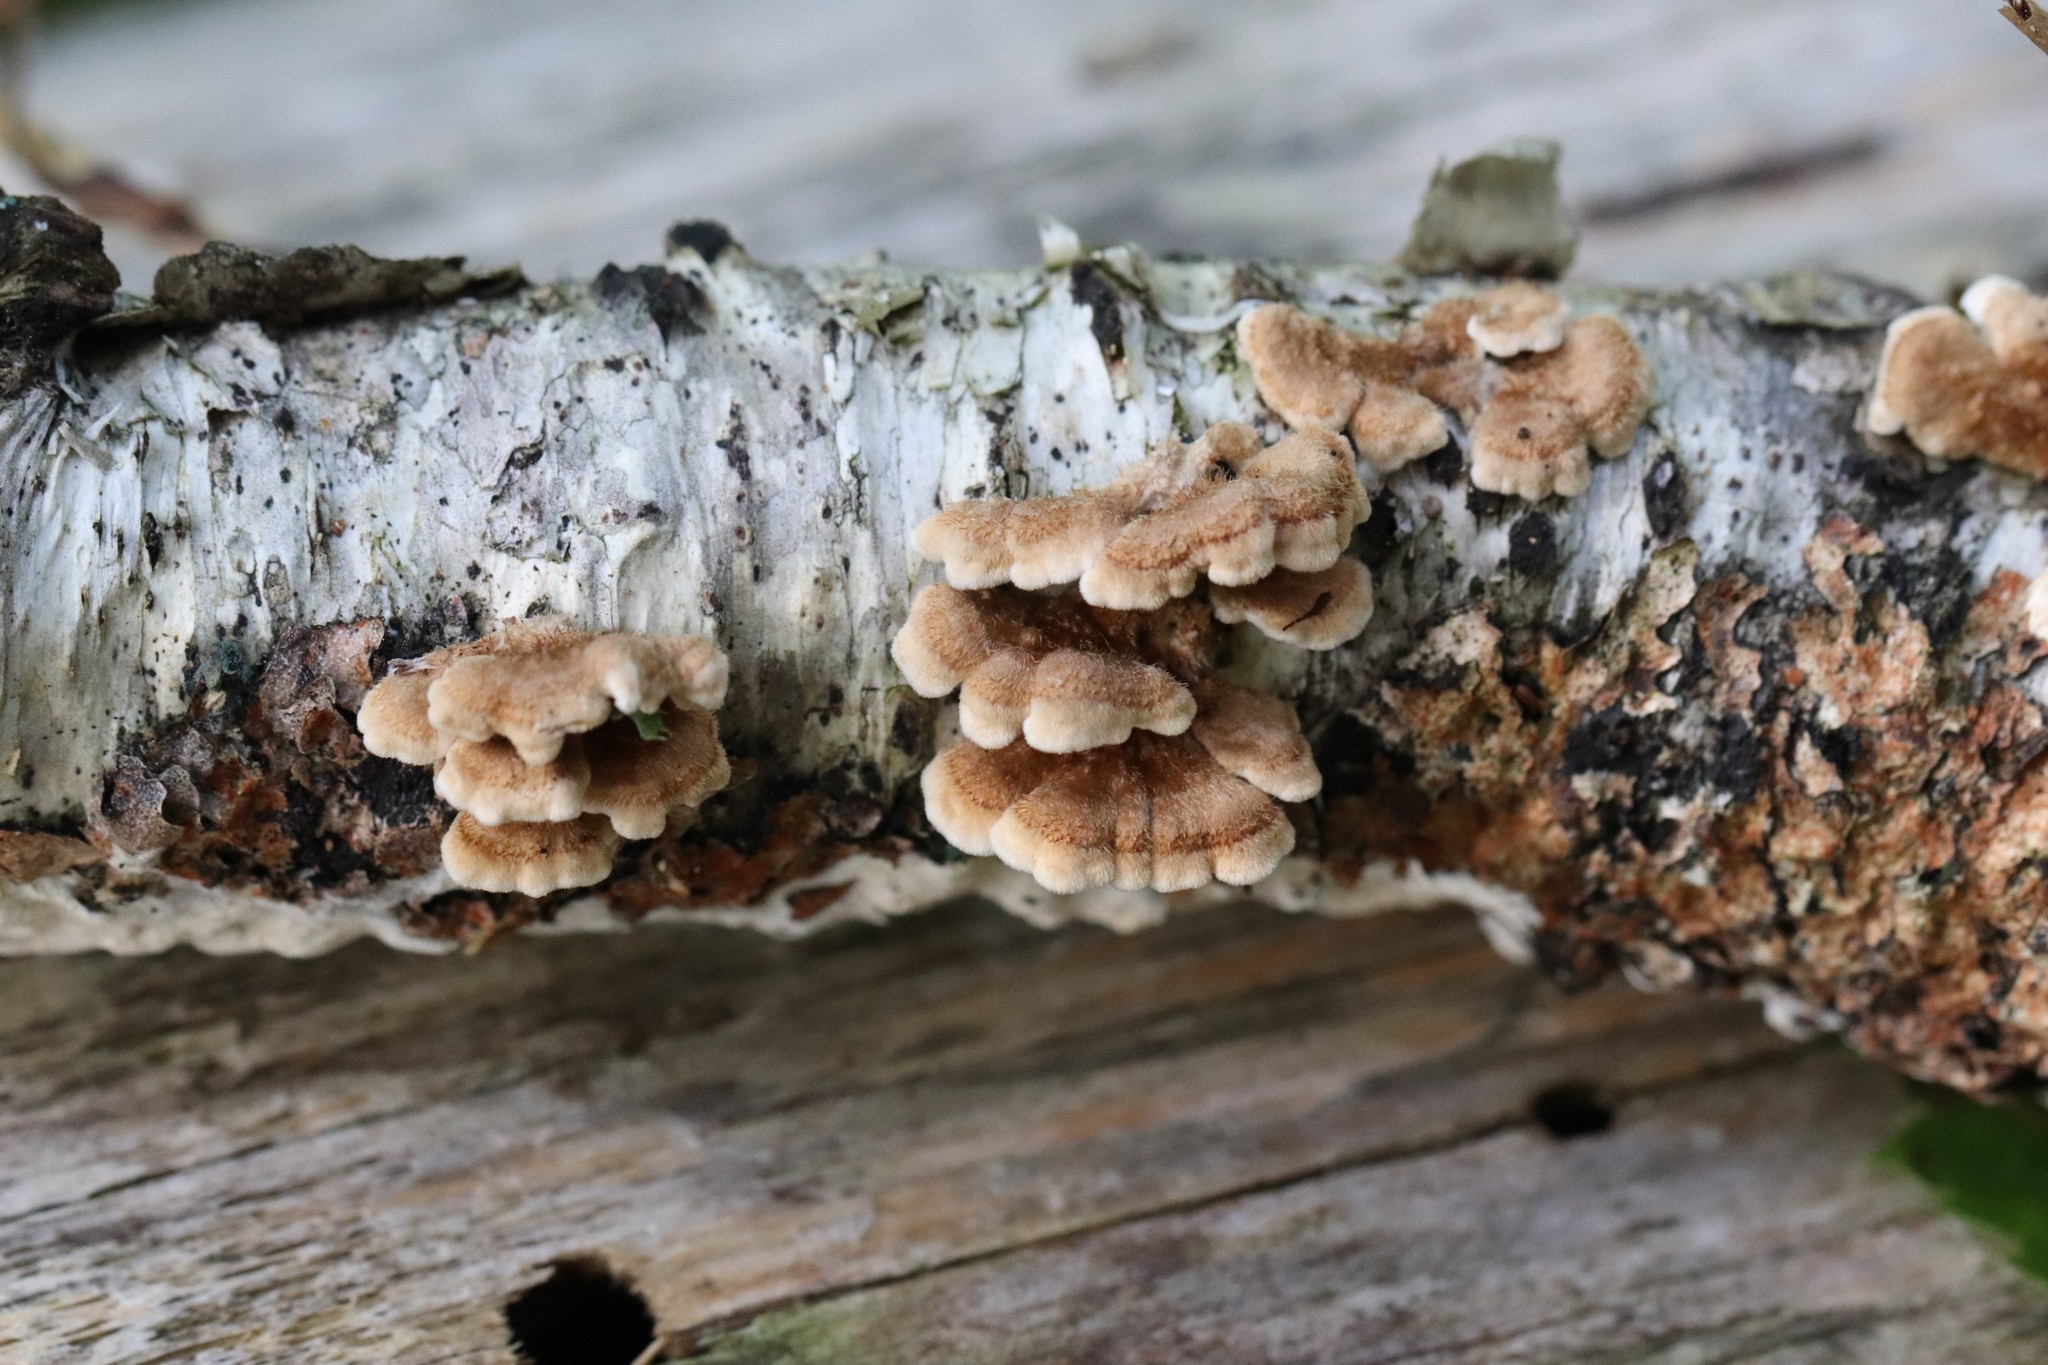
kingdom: Fungi
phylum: Basidiomycota
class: Agaricomycetes
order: Amylocorticiales
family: Amylocorticiaceae
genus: Plicaturopsis
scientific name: Plicaturopsis crispa
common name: Crimped gill
